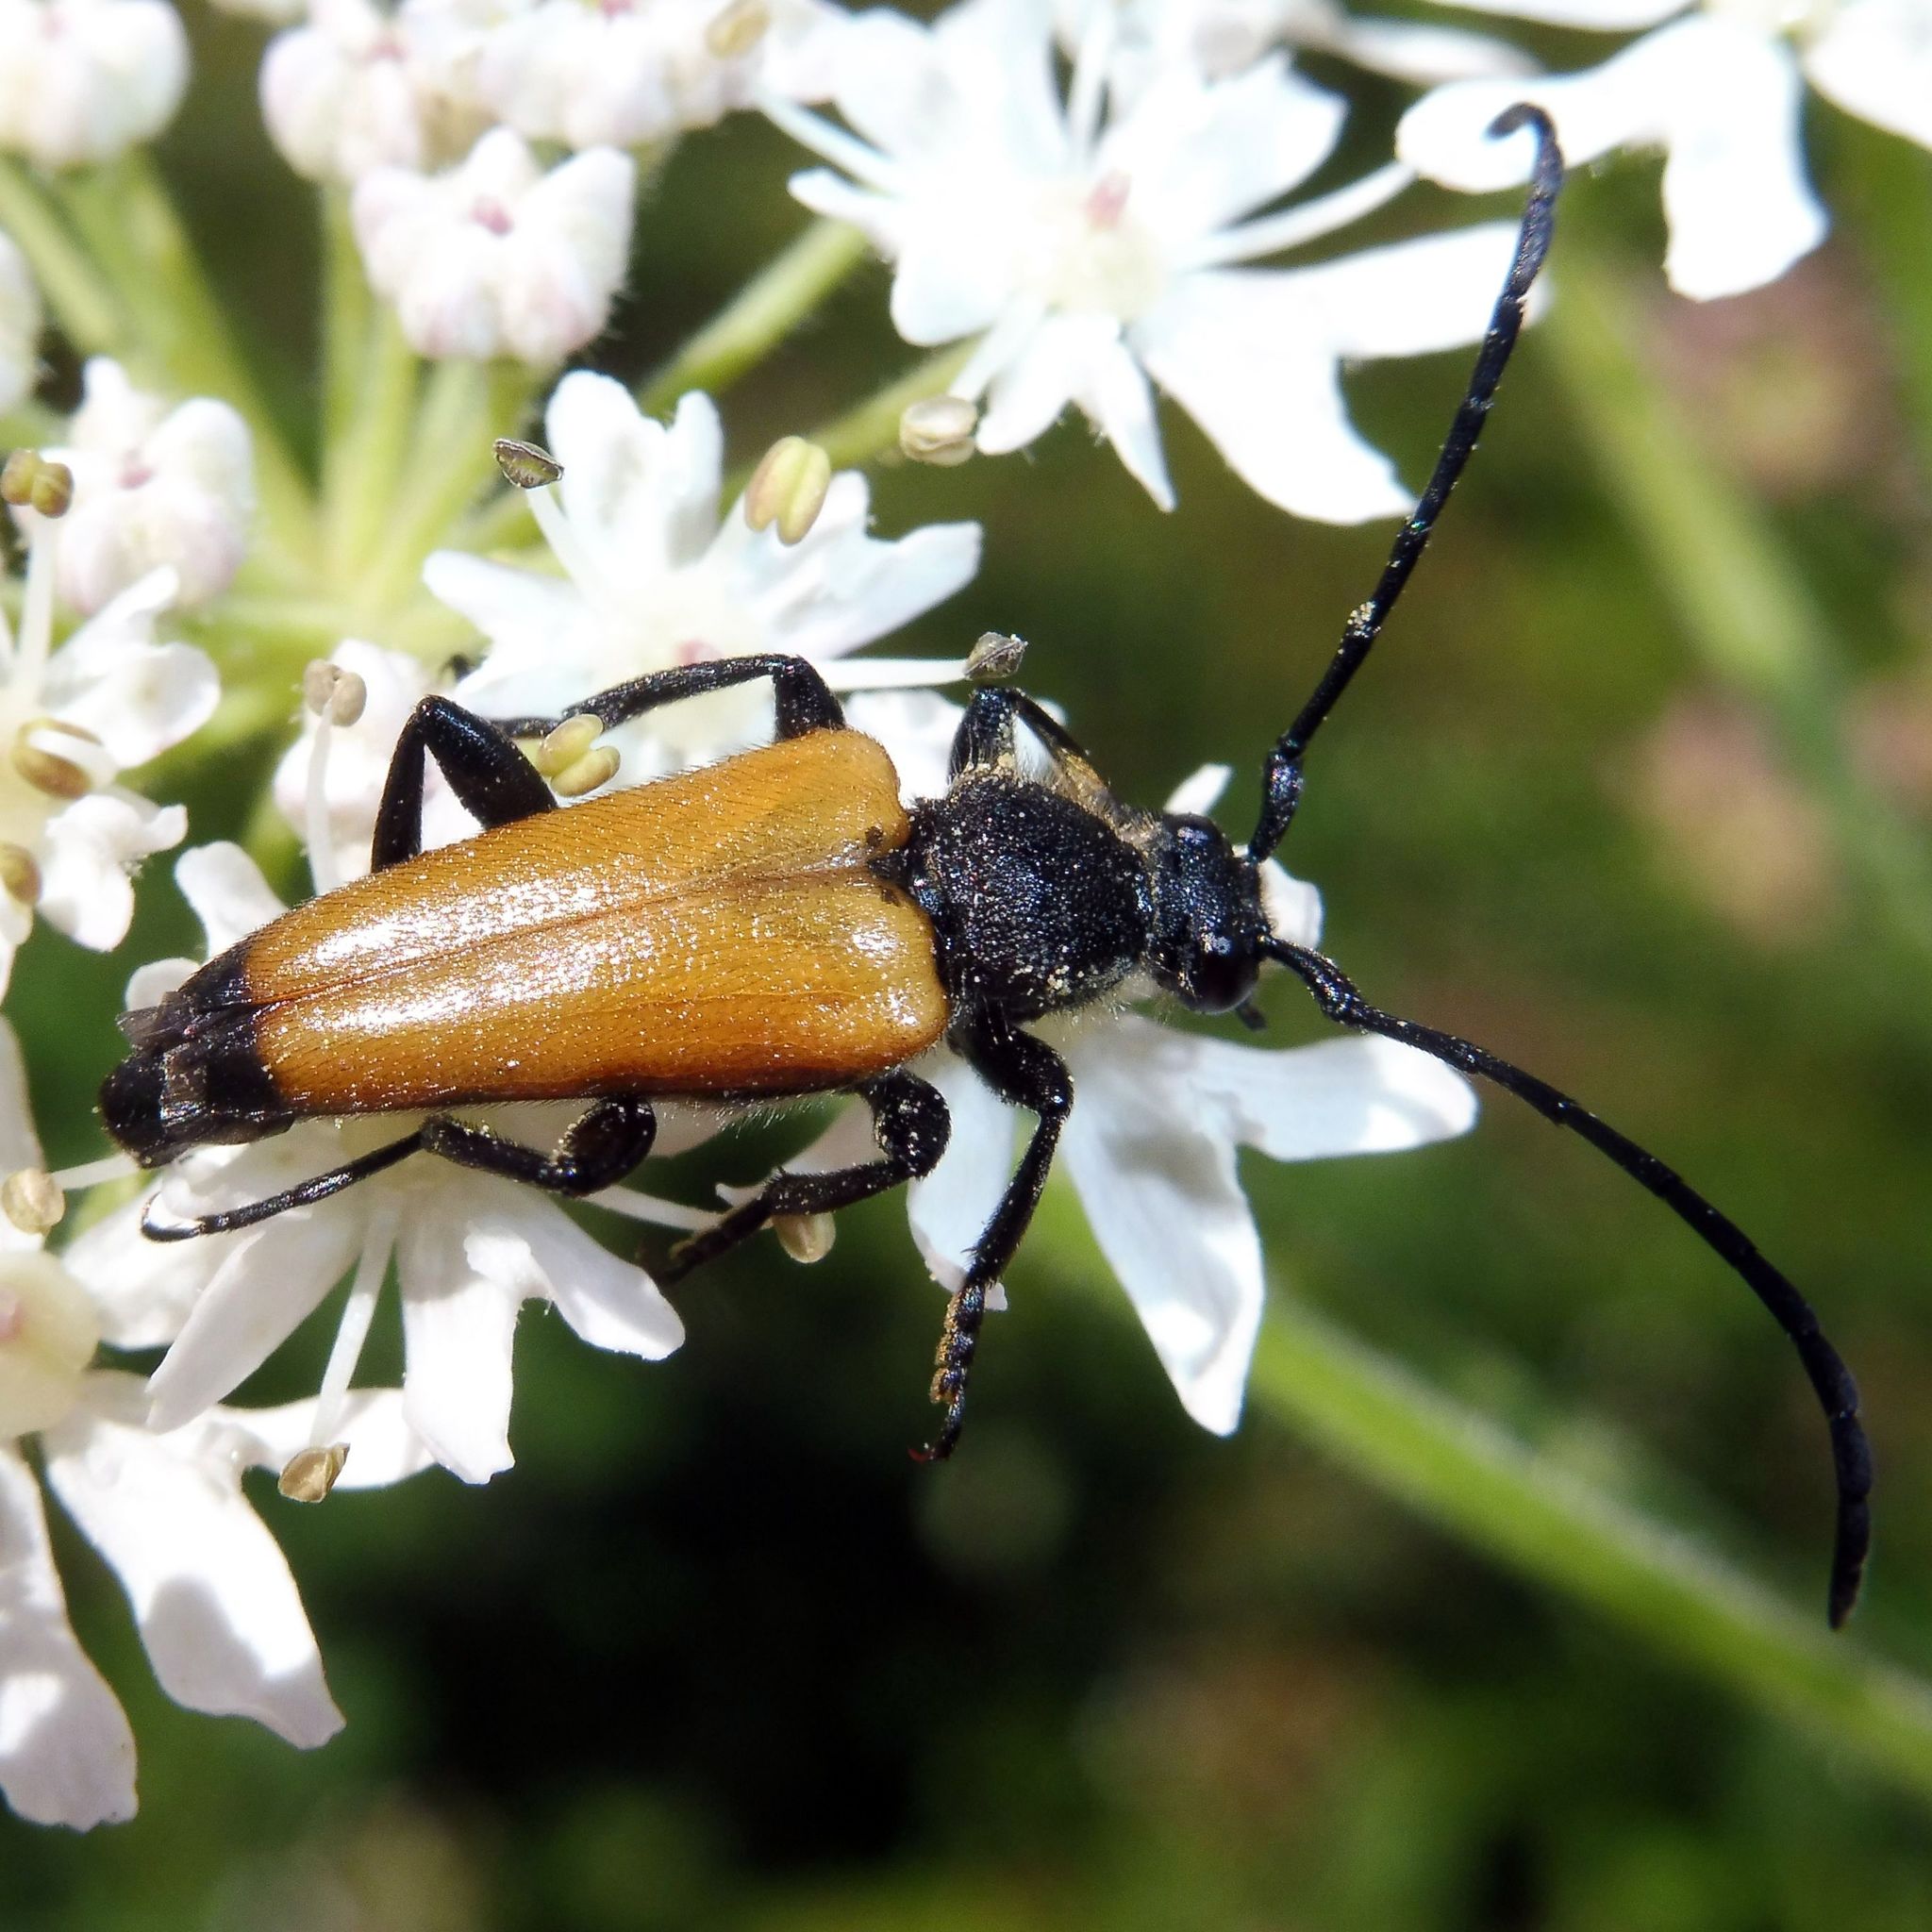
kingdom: Animalia
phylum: Arthropoda
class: Insecta
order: Coleoptera
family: Cerambycidae
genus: Paracorymbia
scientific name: Paracorymbia fulva
